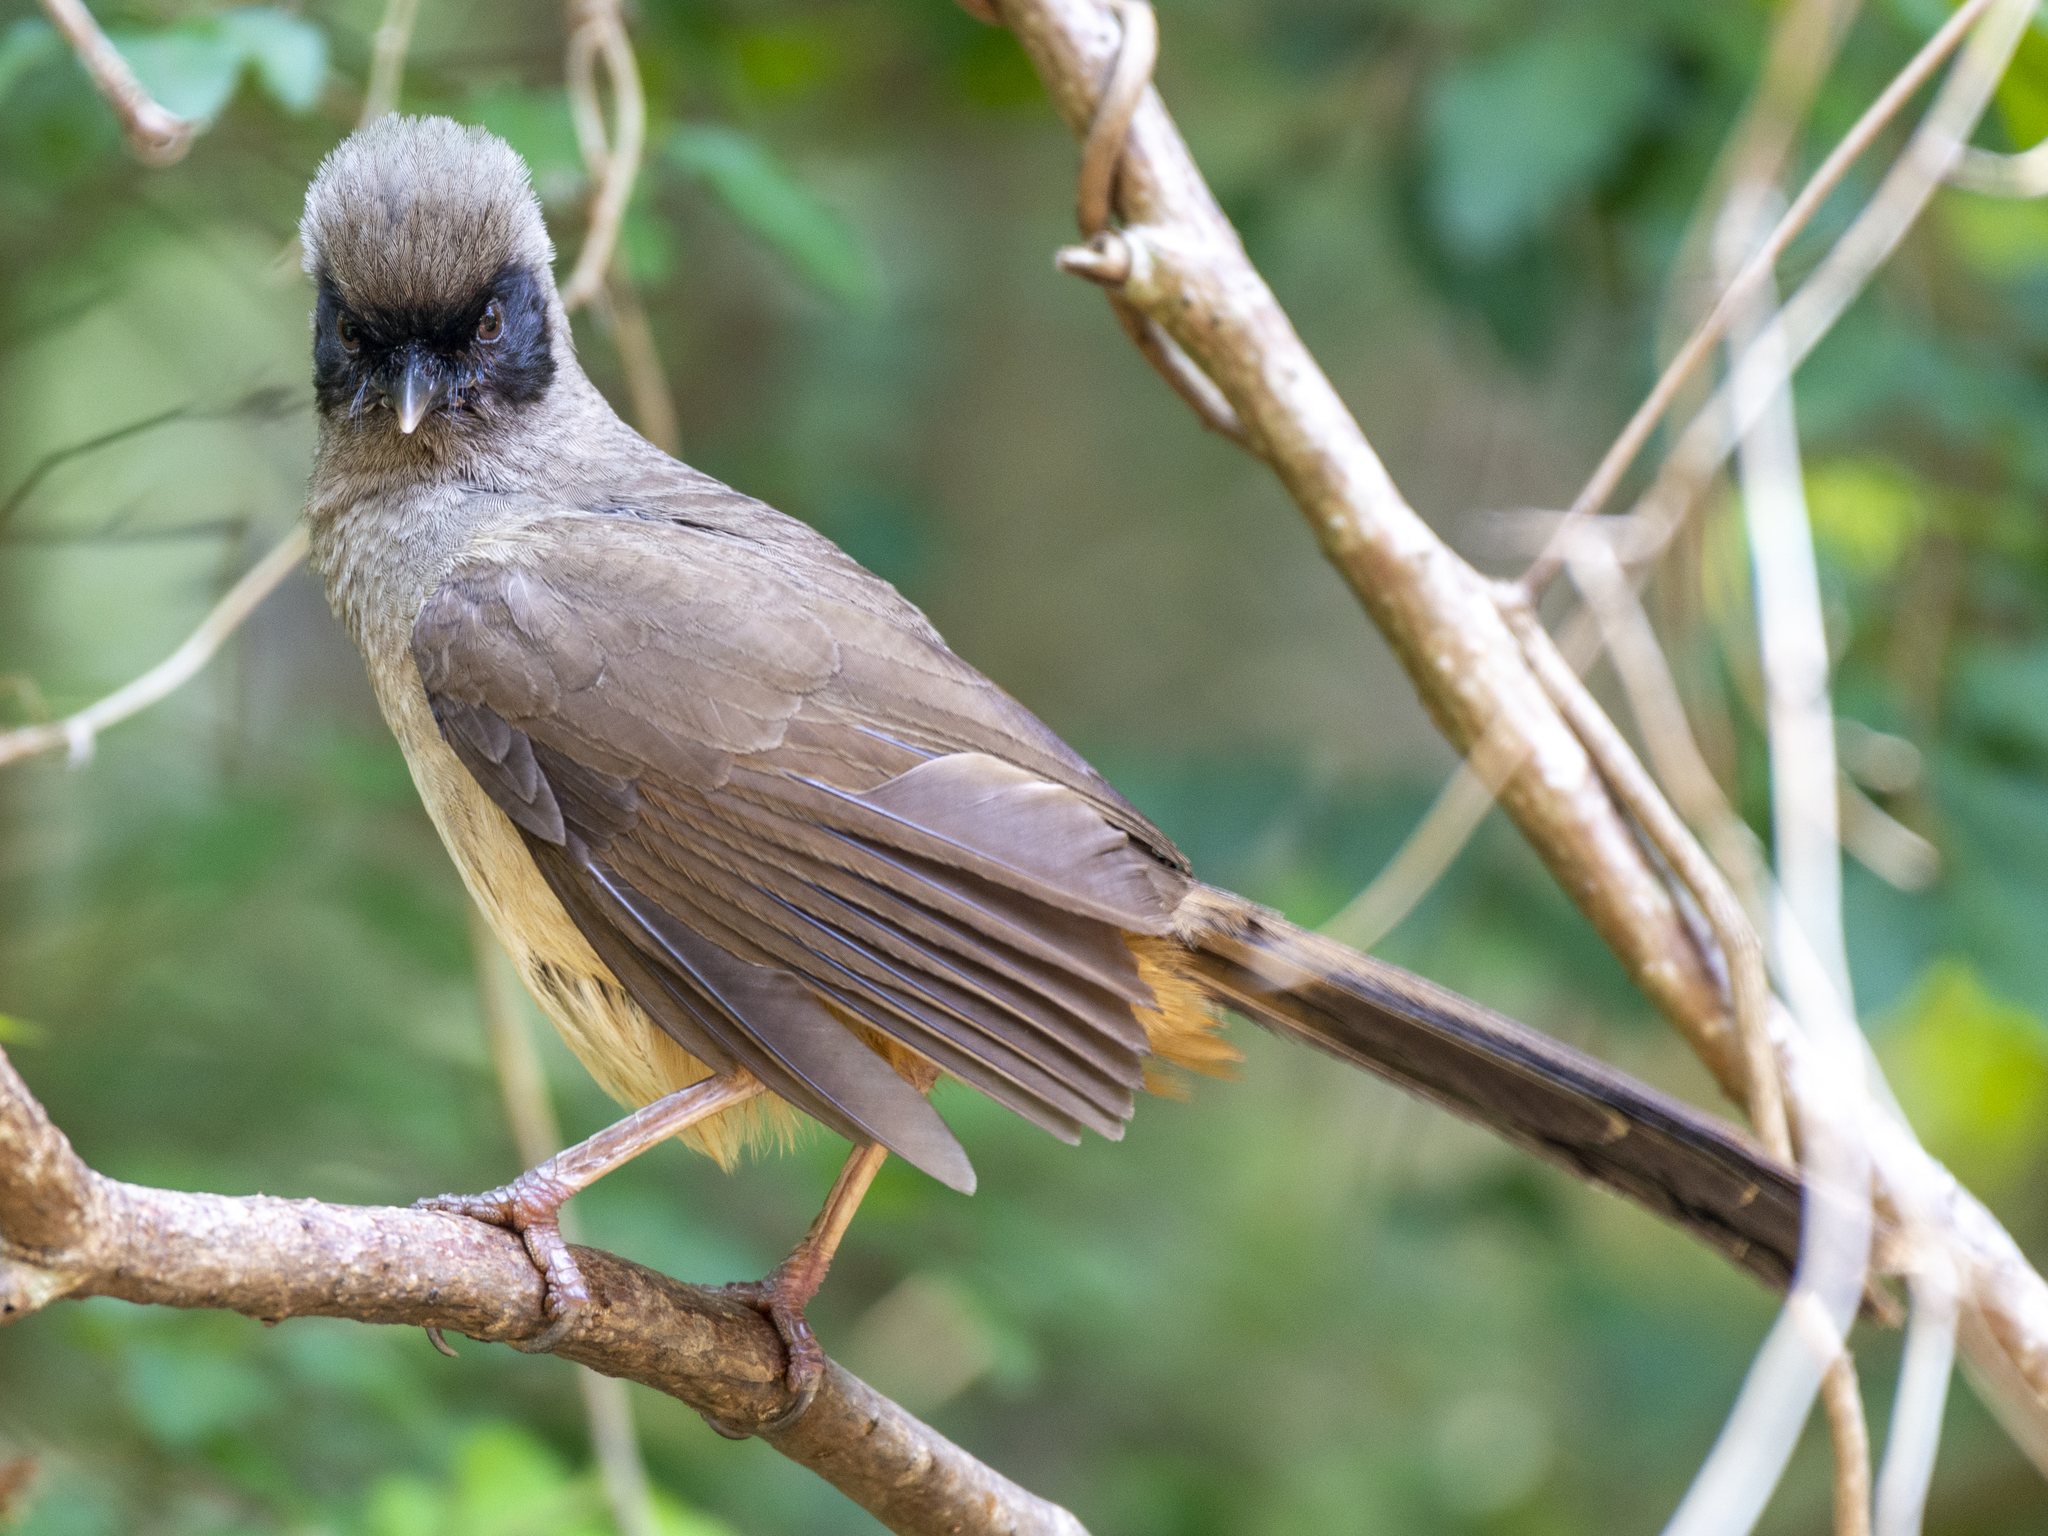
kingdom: Animalia
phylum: Chordata
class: Aves
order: Passeriformes
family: Leiothrichidae
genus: Garrulax
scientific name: Garrulax perspicillatus
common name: Masked laughingthrush
